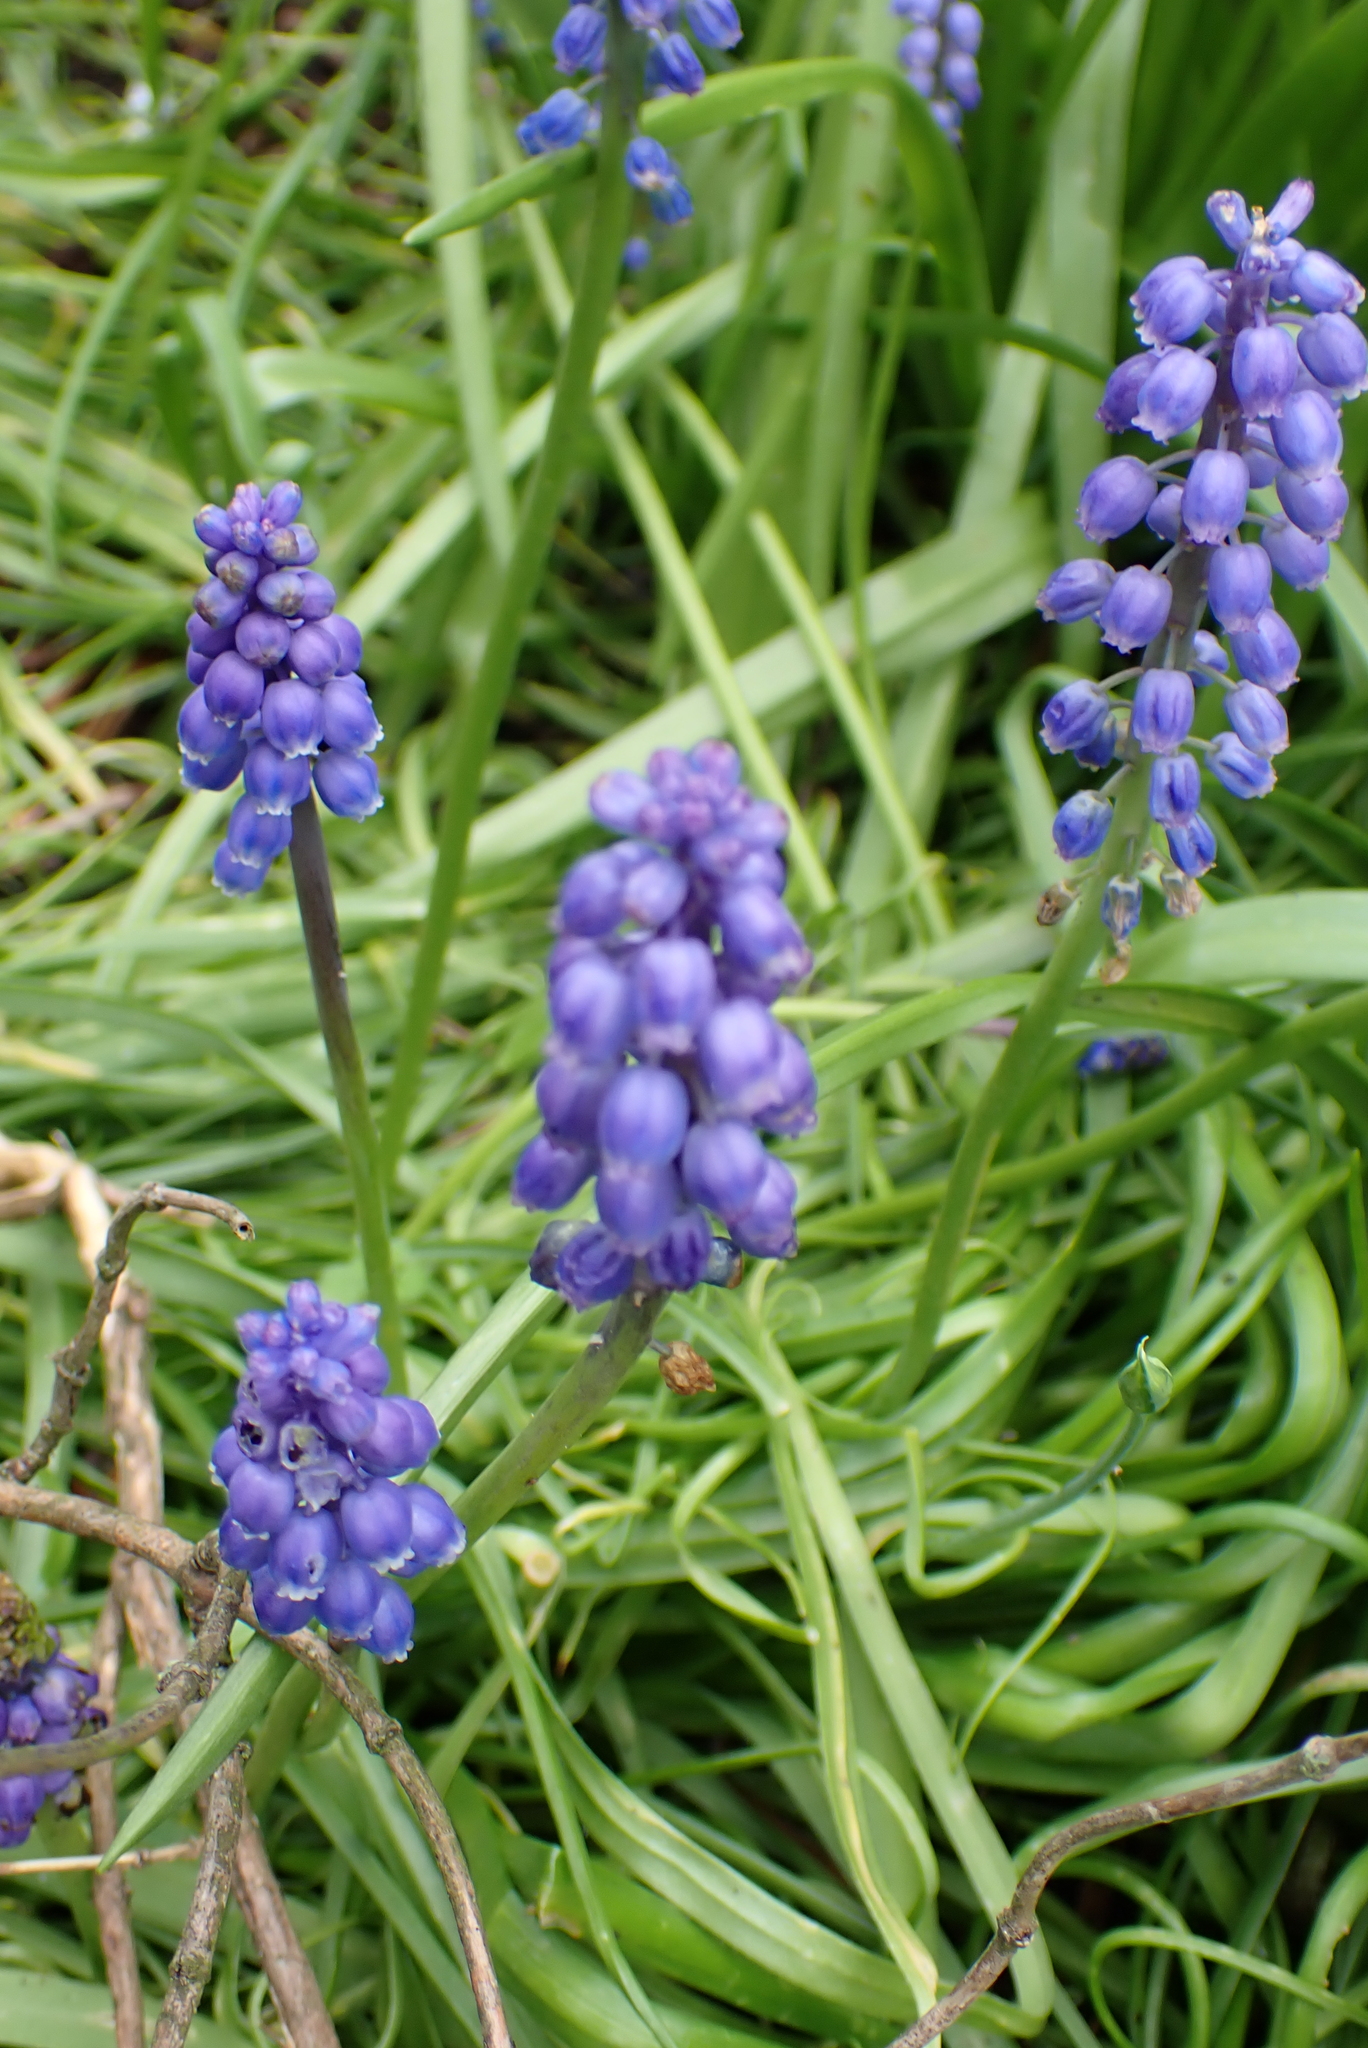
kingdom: Plantae
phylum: Tracheophyta
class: Liliopsida
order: Asparagales
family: Asparagaceae
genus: Muscari
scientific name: Muscari armeniacum
